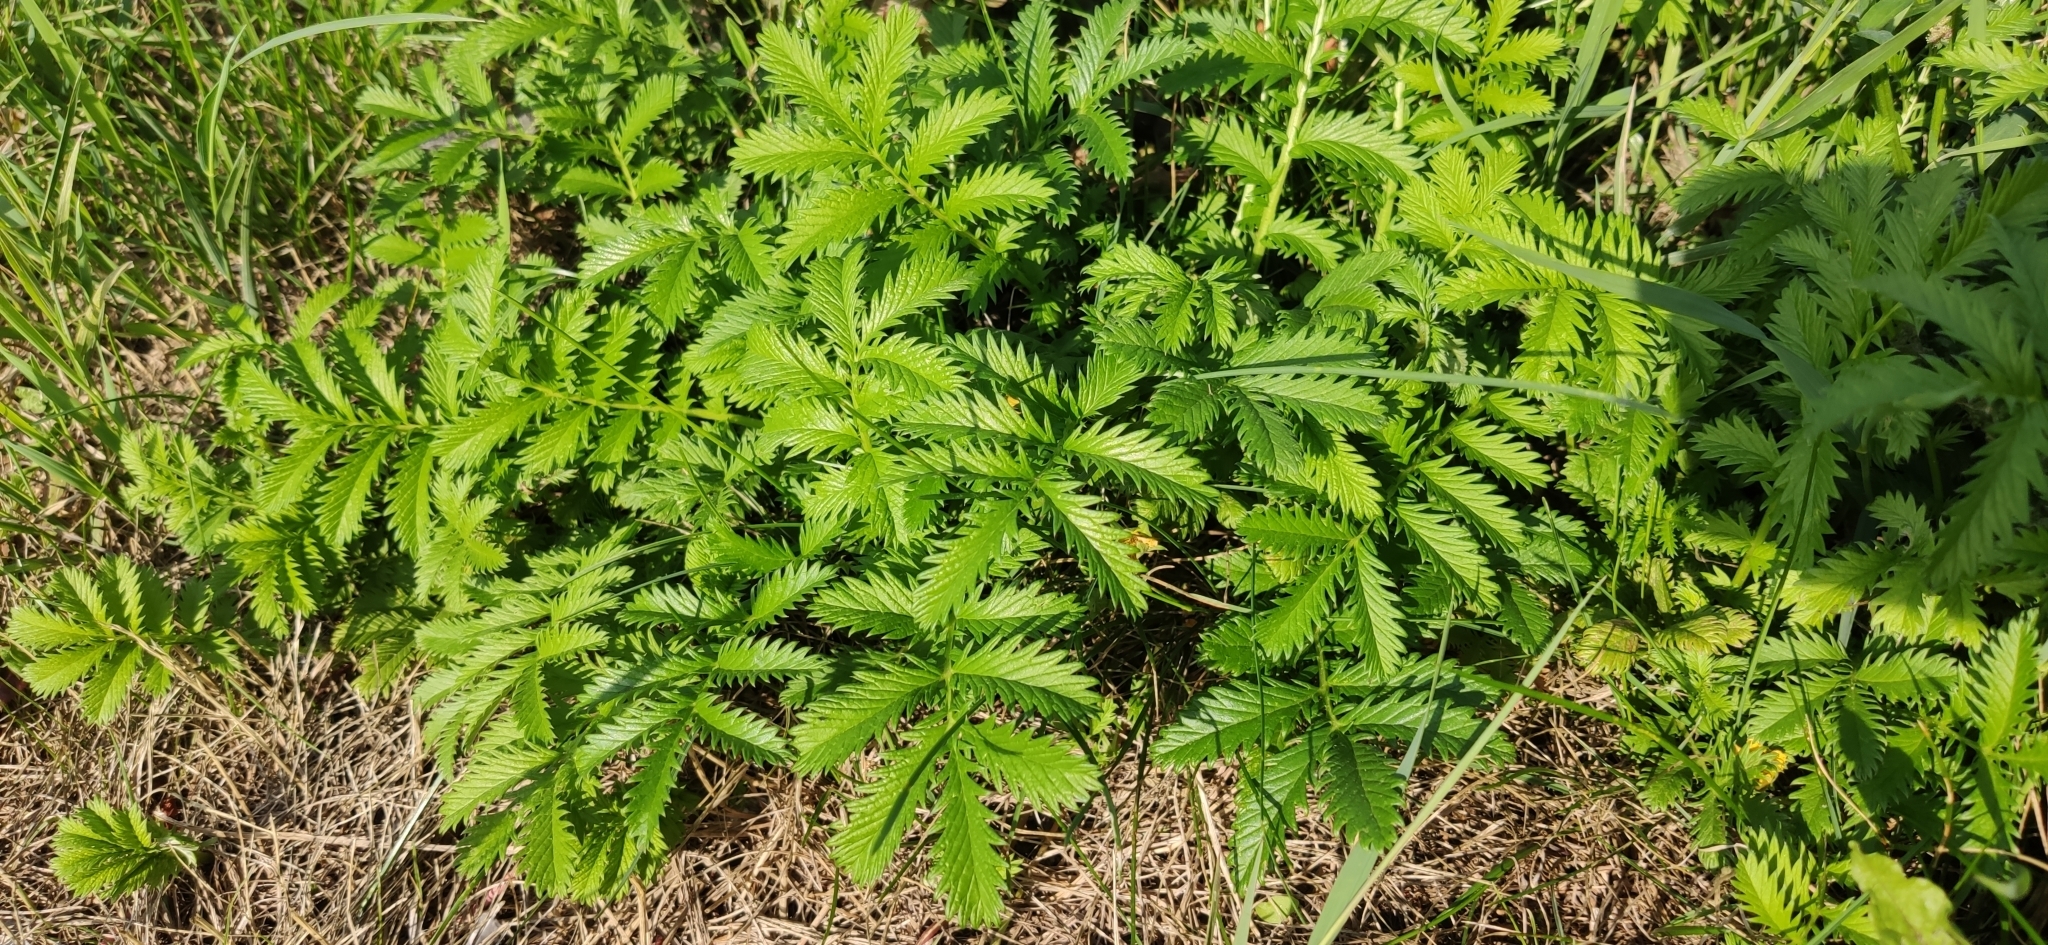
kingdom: Plantae
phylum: Tracheophyta
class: Magnoliopsida
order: Rosales
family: Rosaceae
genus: Argentina
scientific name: Argentina anserina
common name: Common silverweed
